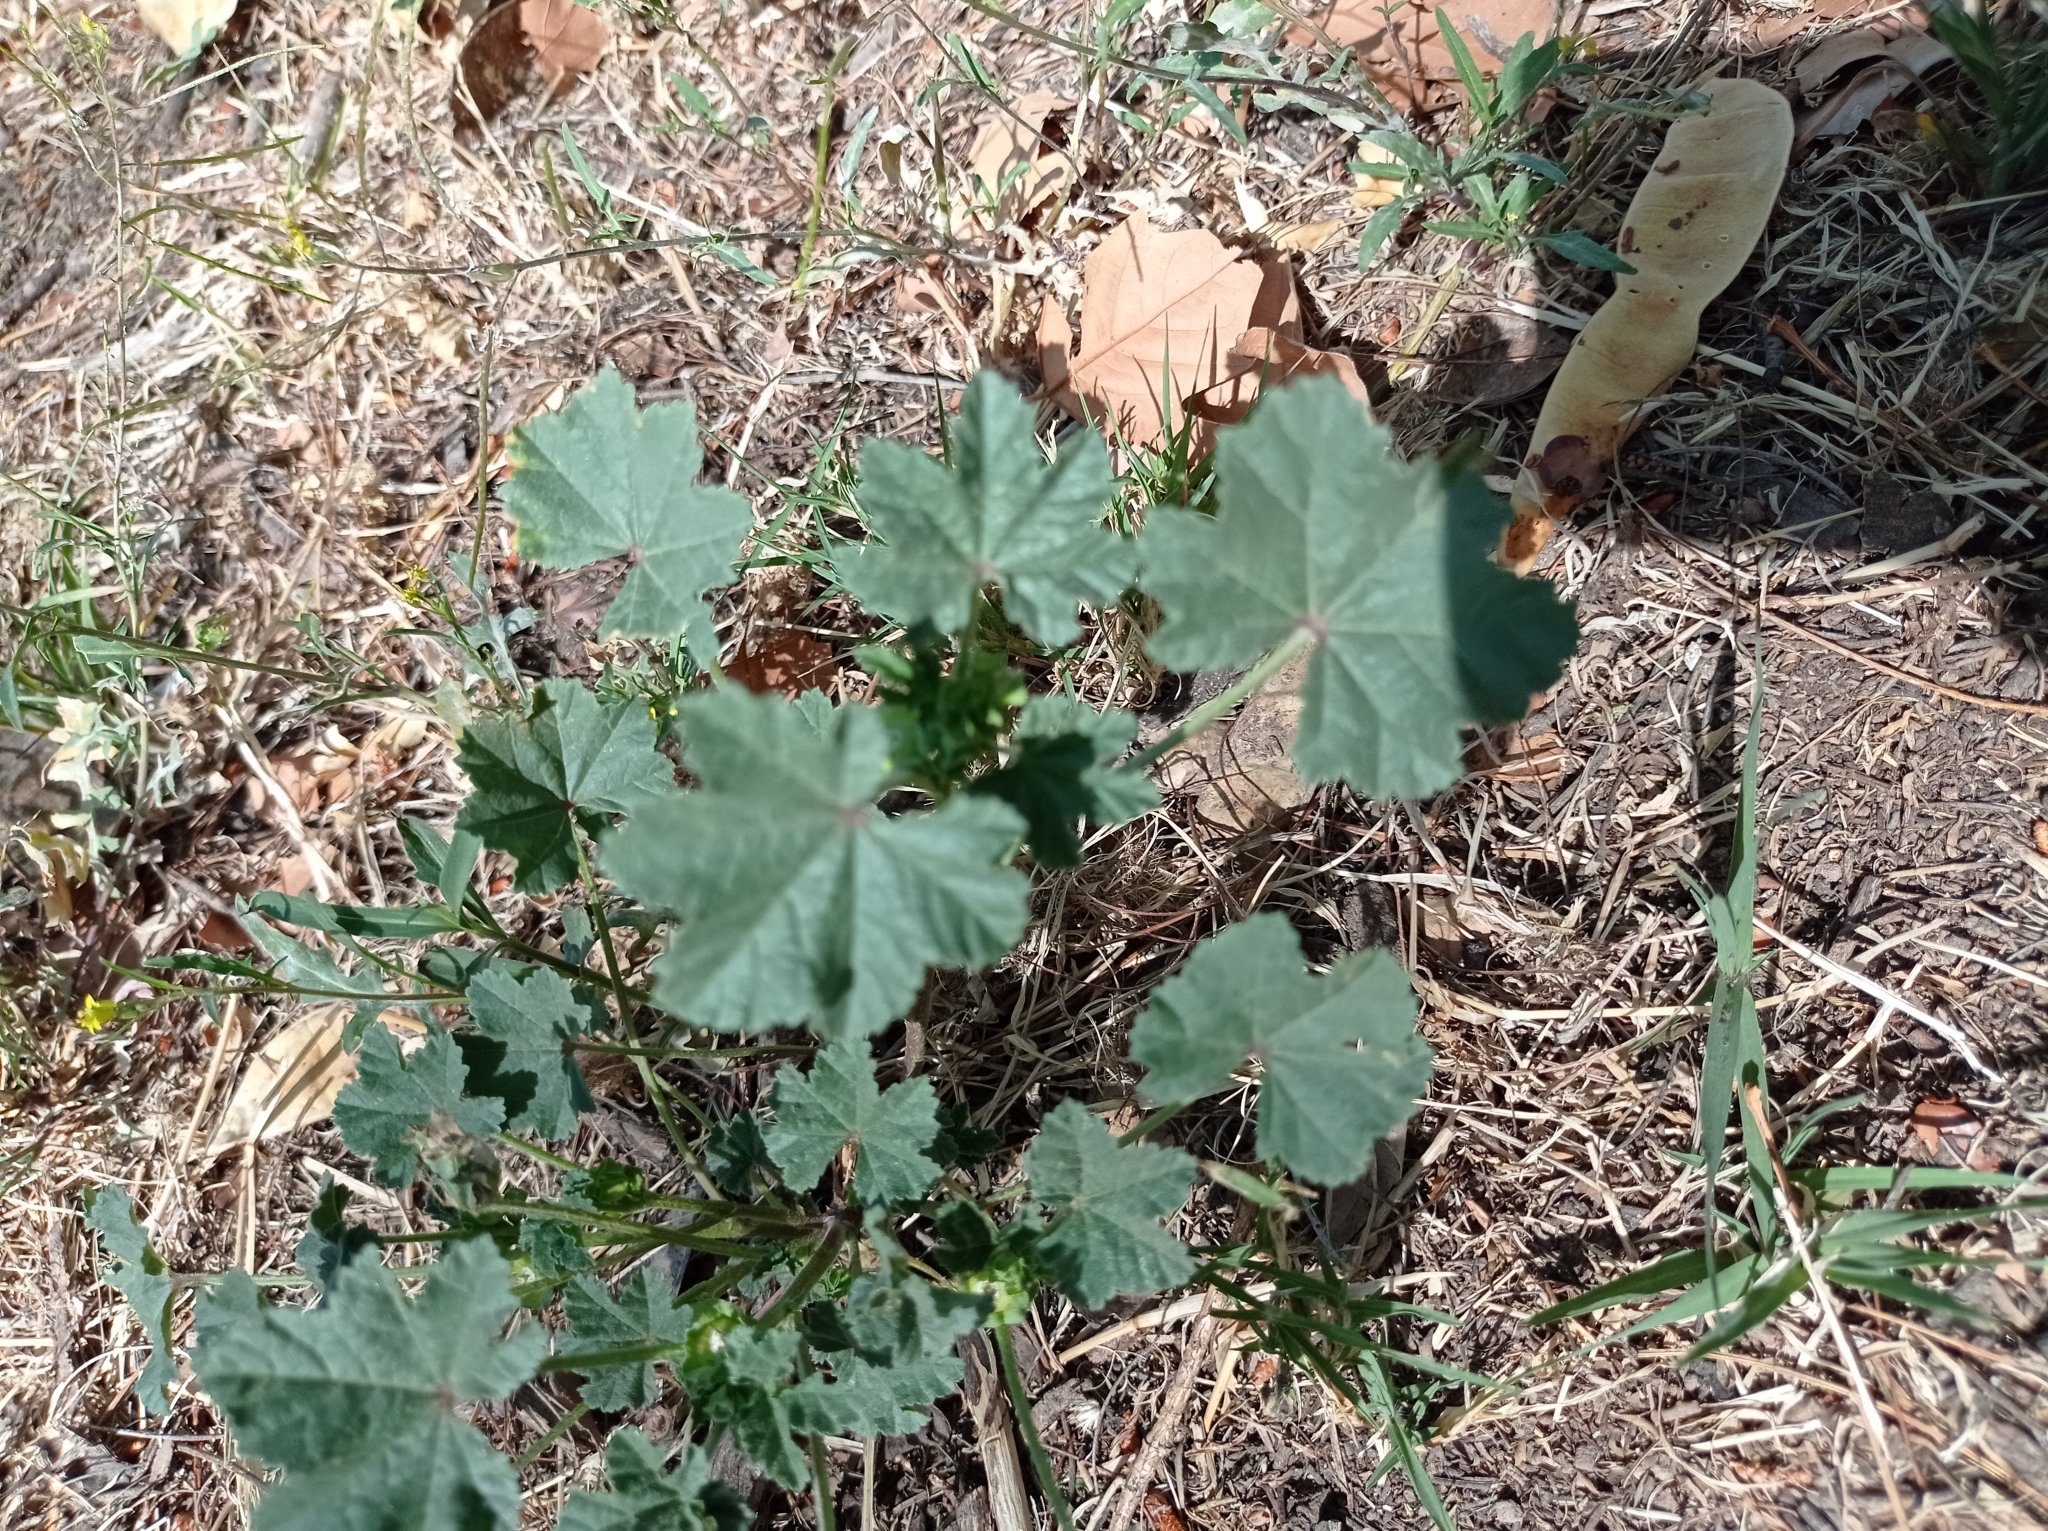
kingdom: Plantae
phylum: Tracheophyta
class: Magnoliopsida
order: Malvales
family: Malvaceae
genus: Malva
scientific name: Malva parviflora
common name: Least mallow
